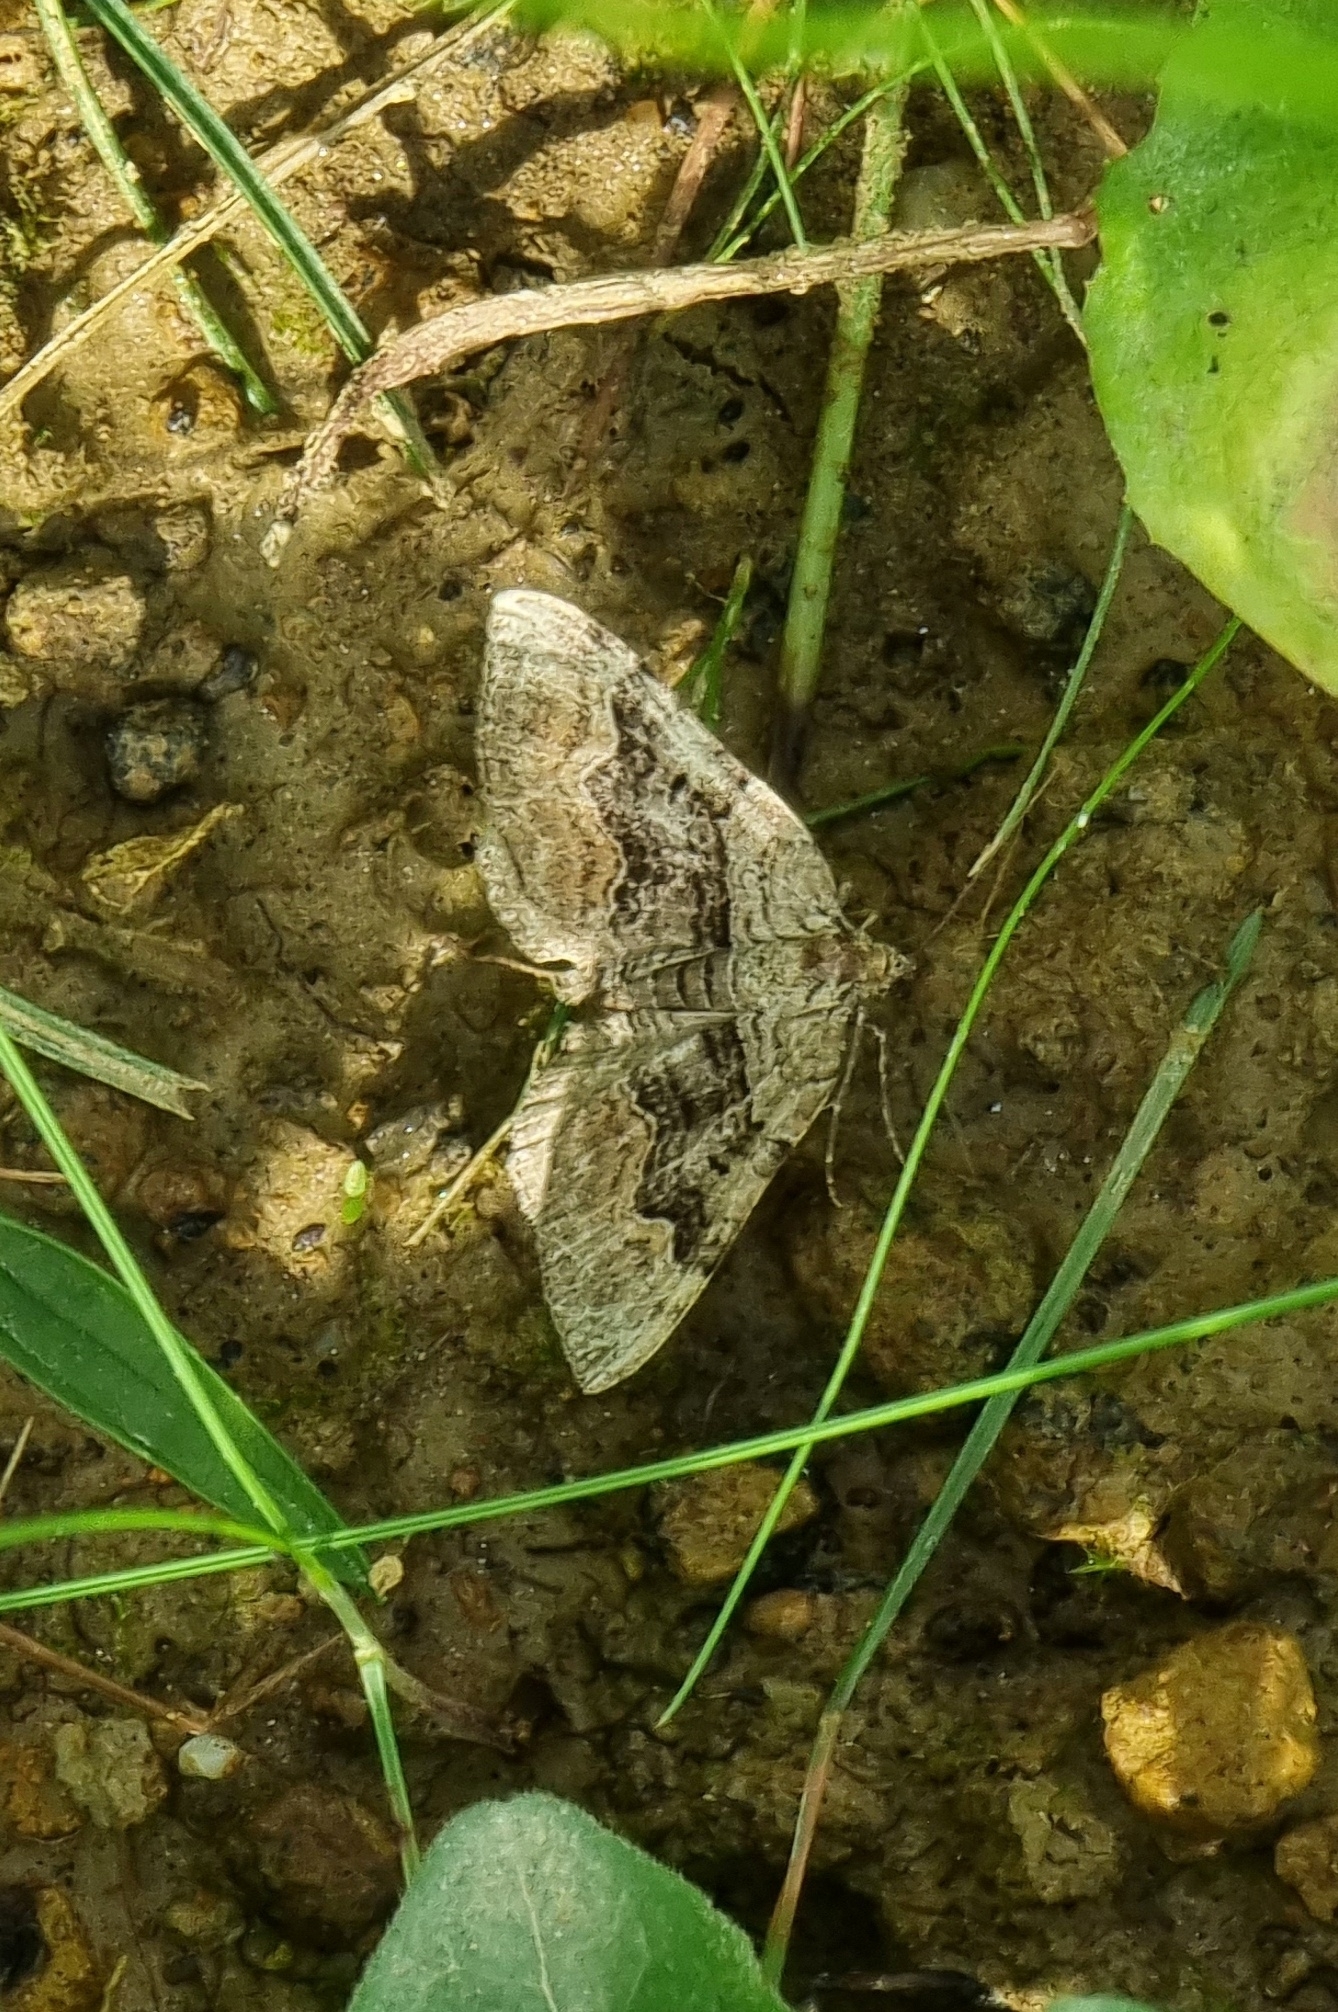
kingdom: Animalia
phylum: Arthropoda
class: Insecta
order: Lepidoptera
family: Geometridae
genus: Xanthorhoe
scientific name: Xanthorhoe quadrifasiata
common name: Large twin-spot carpet
